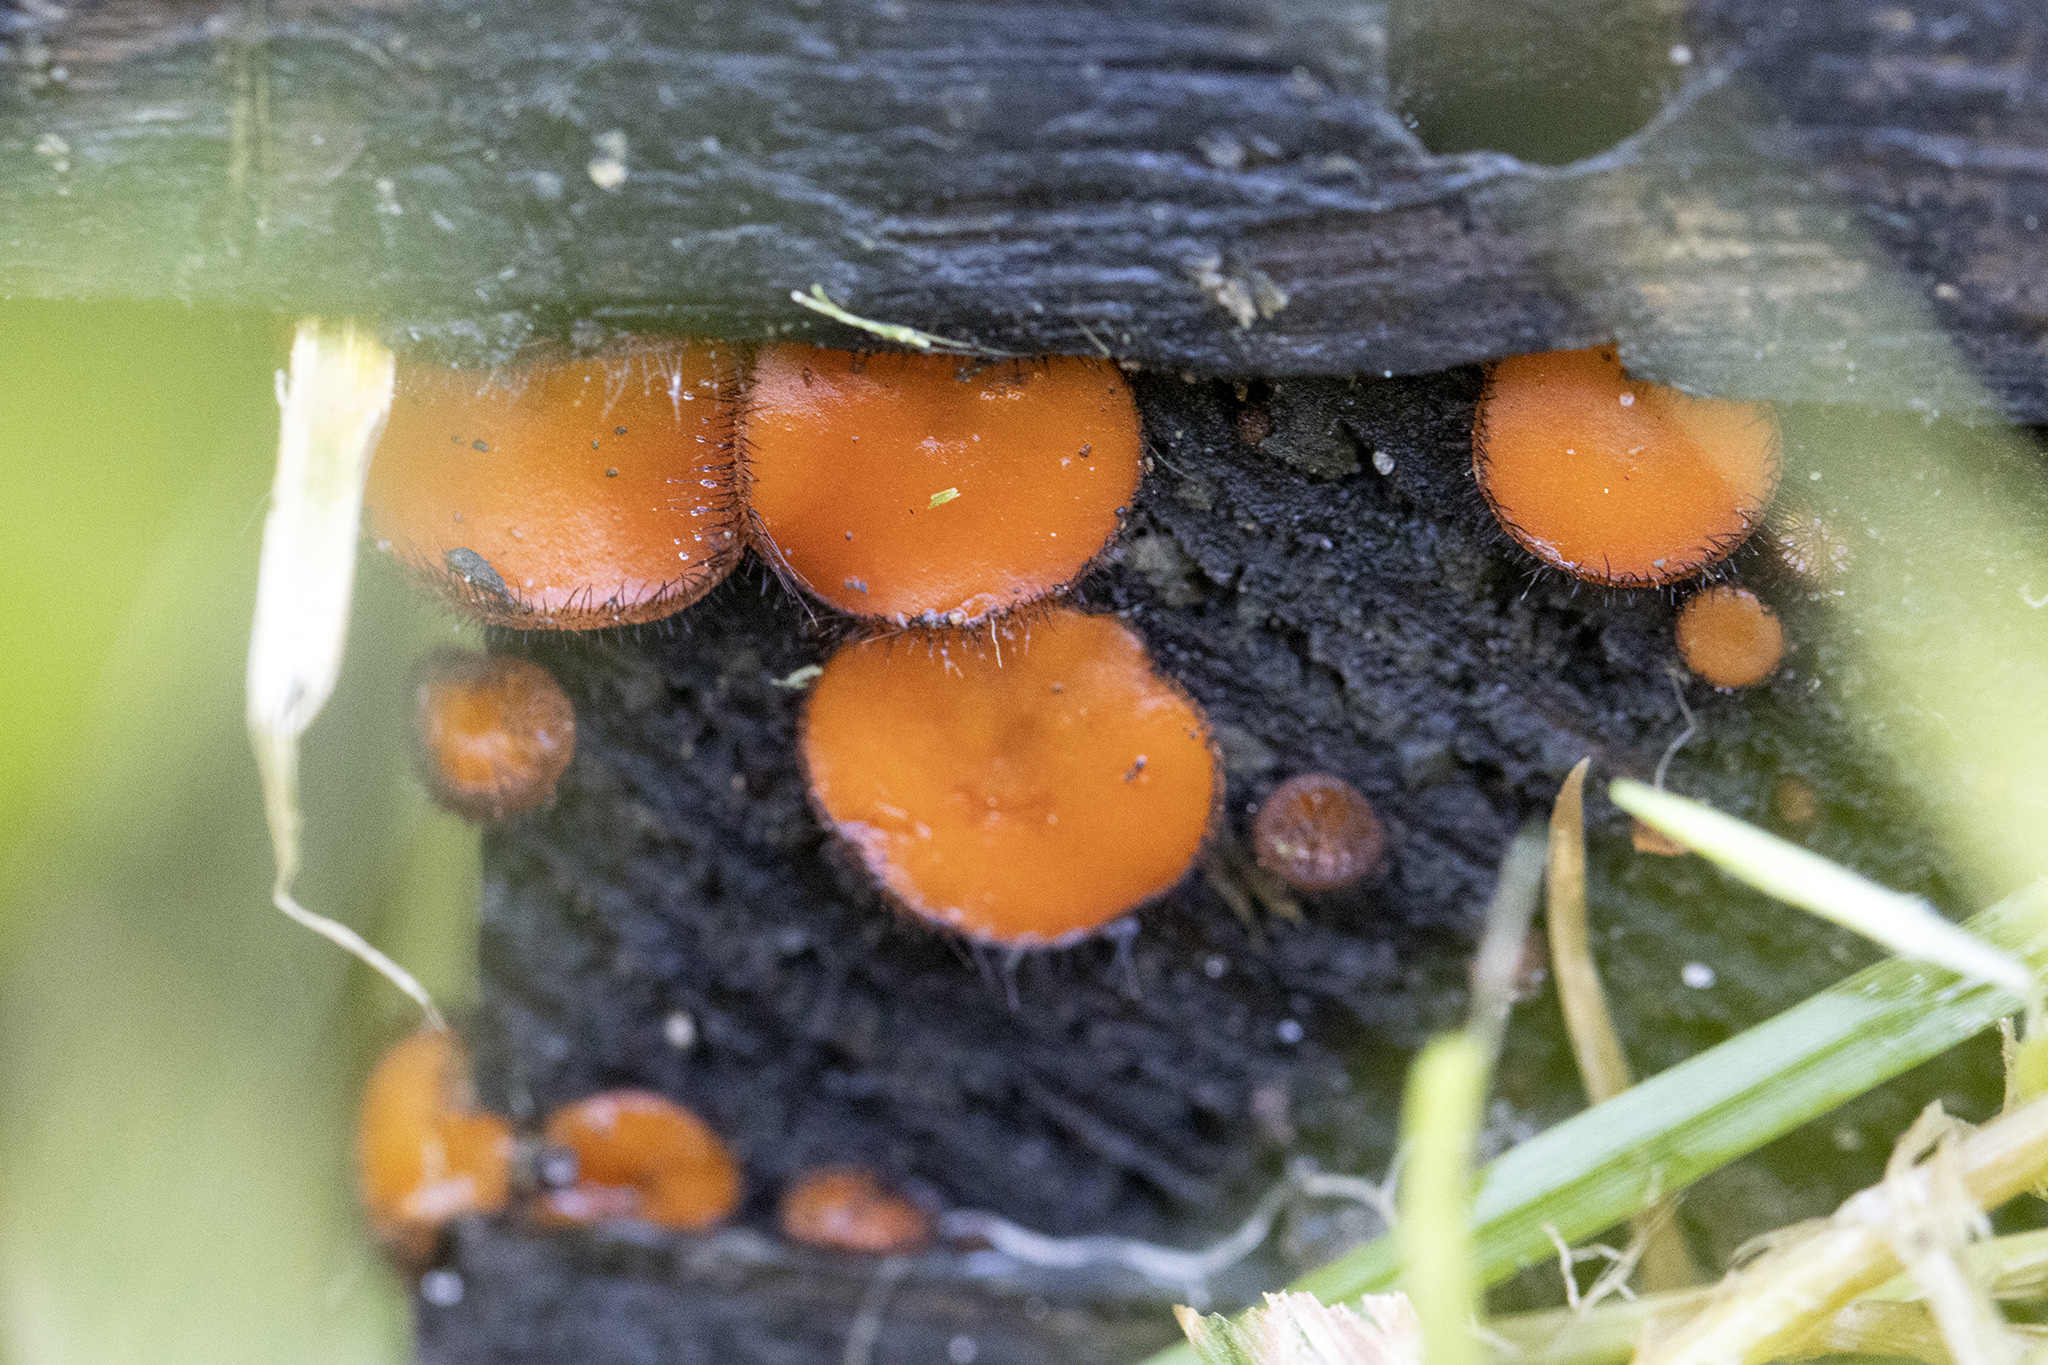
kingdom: Fungi
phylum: Ascomycota
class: Pezizomycetes
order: Pezizales
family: Pyronemataceae
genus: Scutellinia
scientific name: Scutellinia
